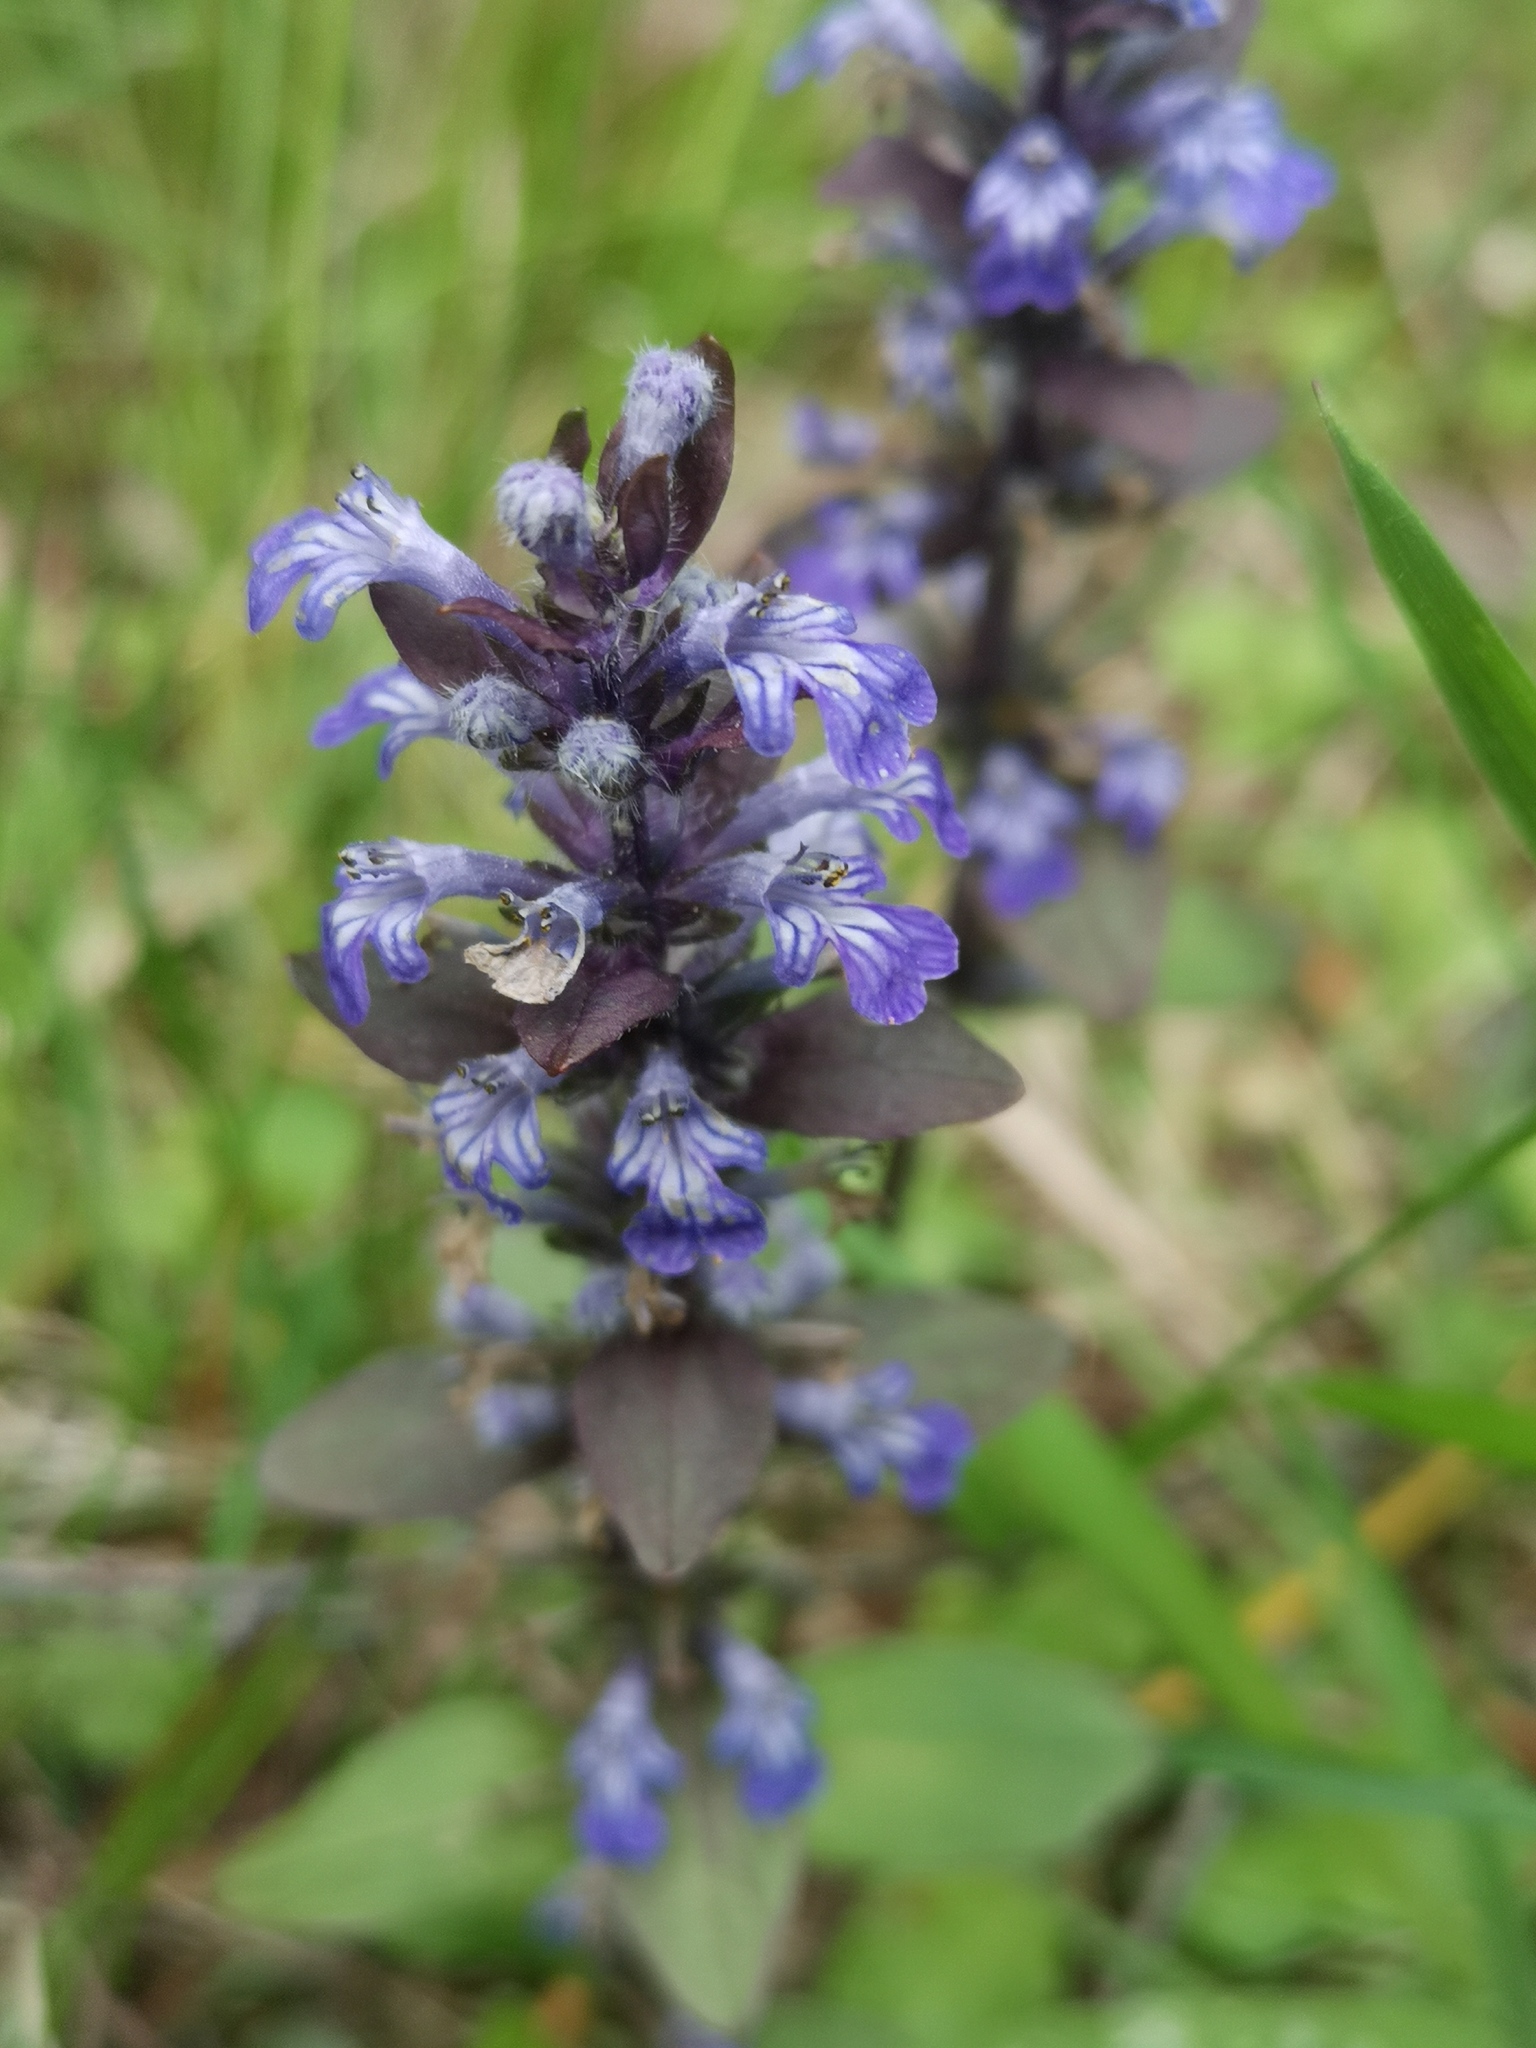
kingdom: Plantae
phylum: Tracheophyta
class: Magnoliopsida
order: Lamiales
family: Lamiaceae
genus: Ajuga
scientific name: Ajuga reptans
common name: Bugle
